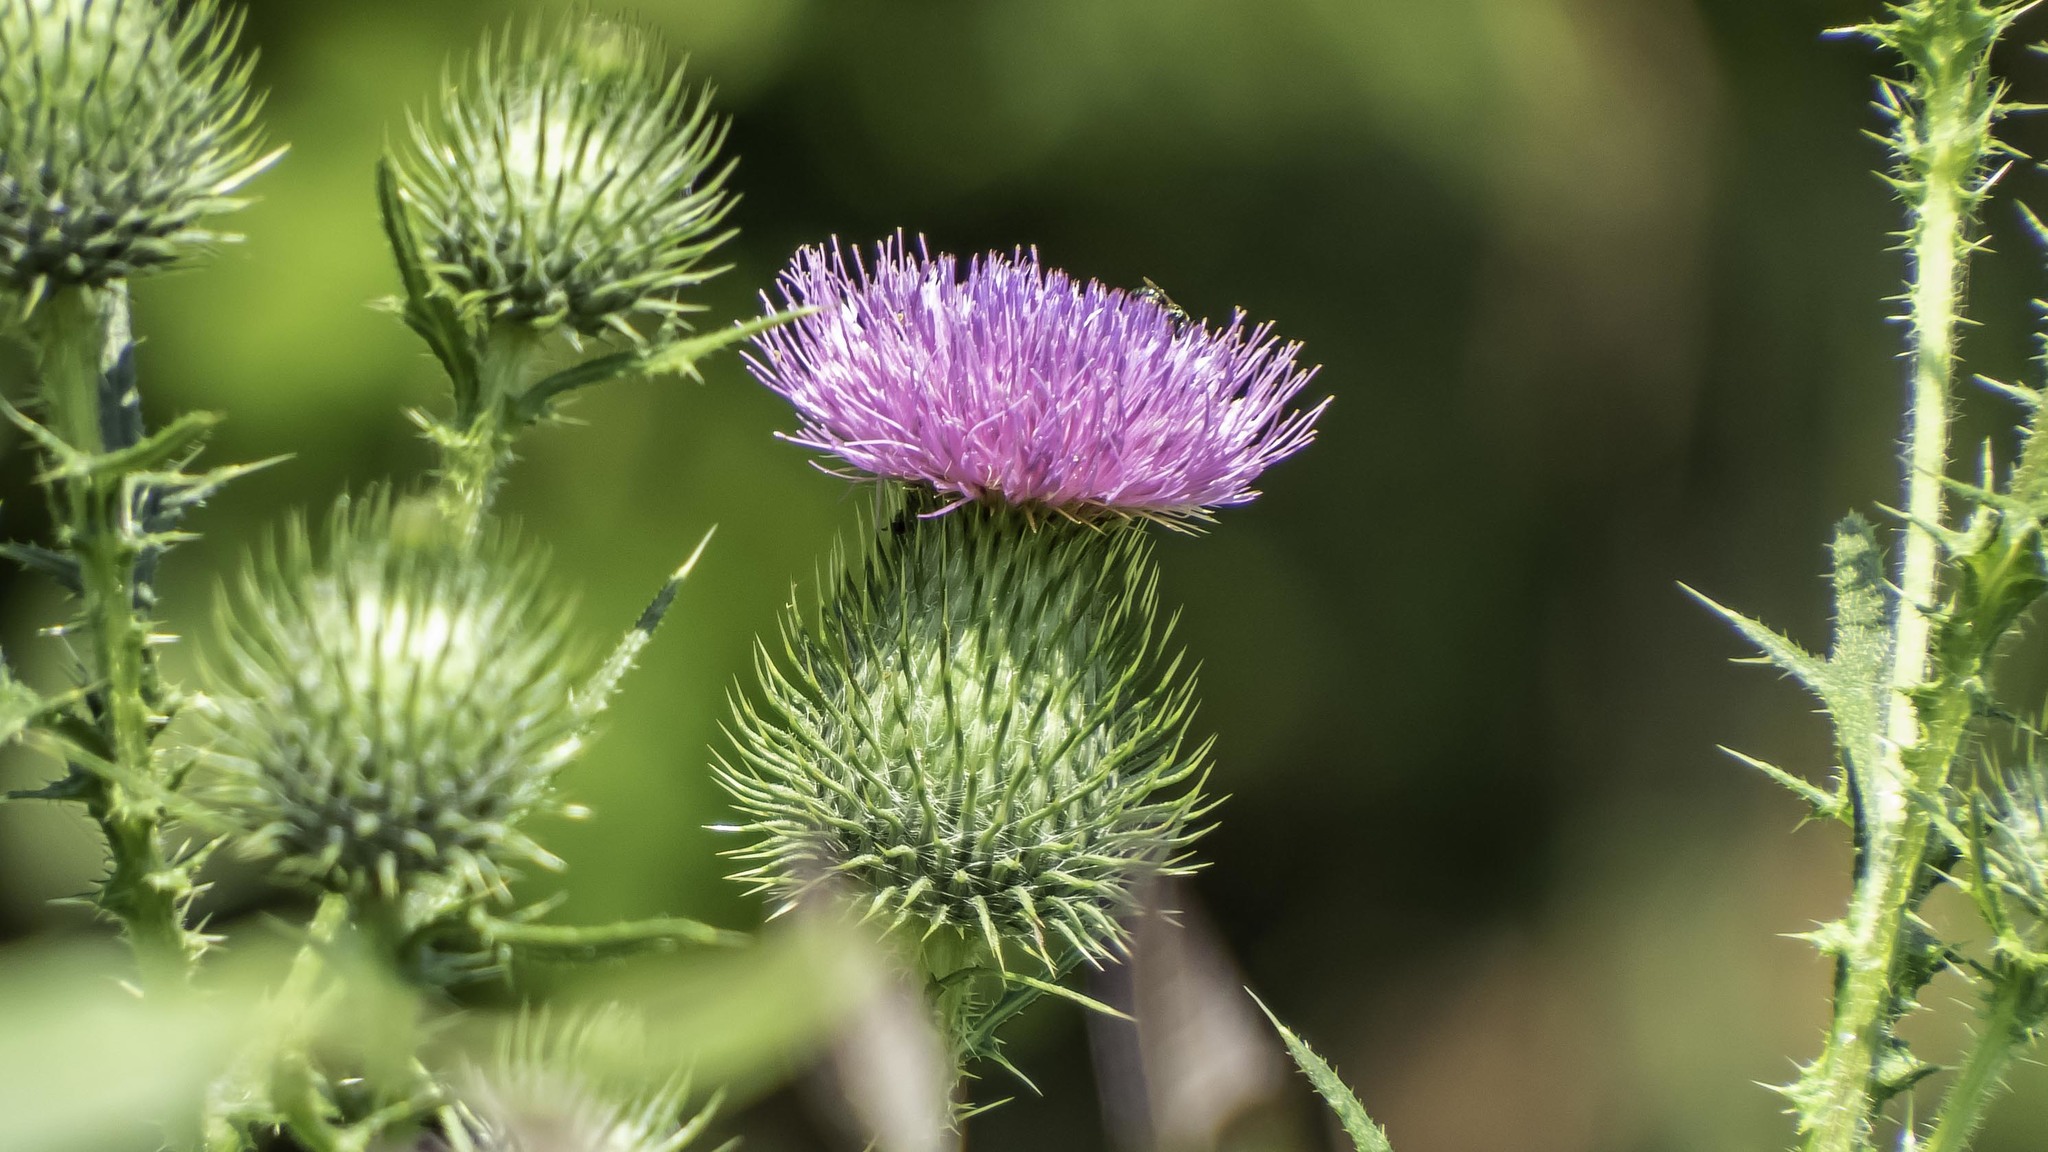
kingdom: Plantae
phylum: Tracheophyta
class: Magnoliopsida
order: Asterales
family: Asteraceae
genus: Cirsium
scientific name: Cirsium vulgare
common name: Bull thistle
